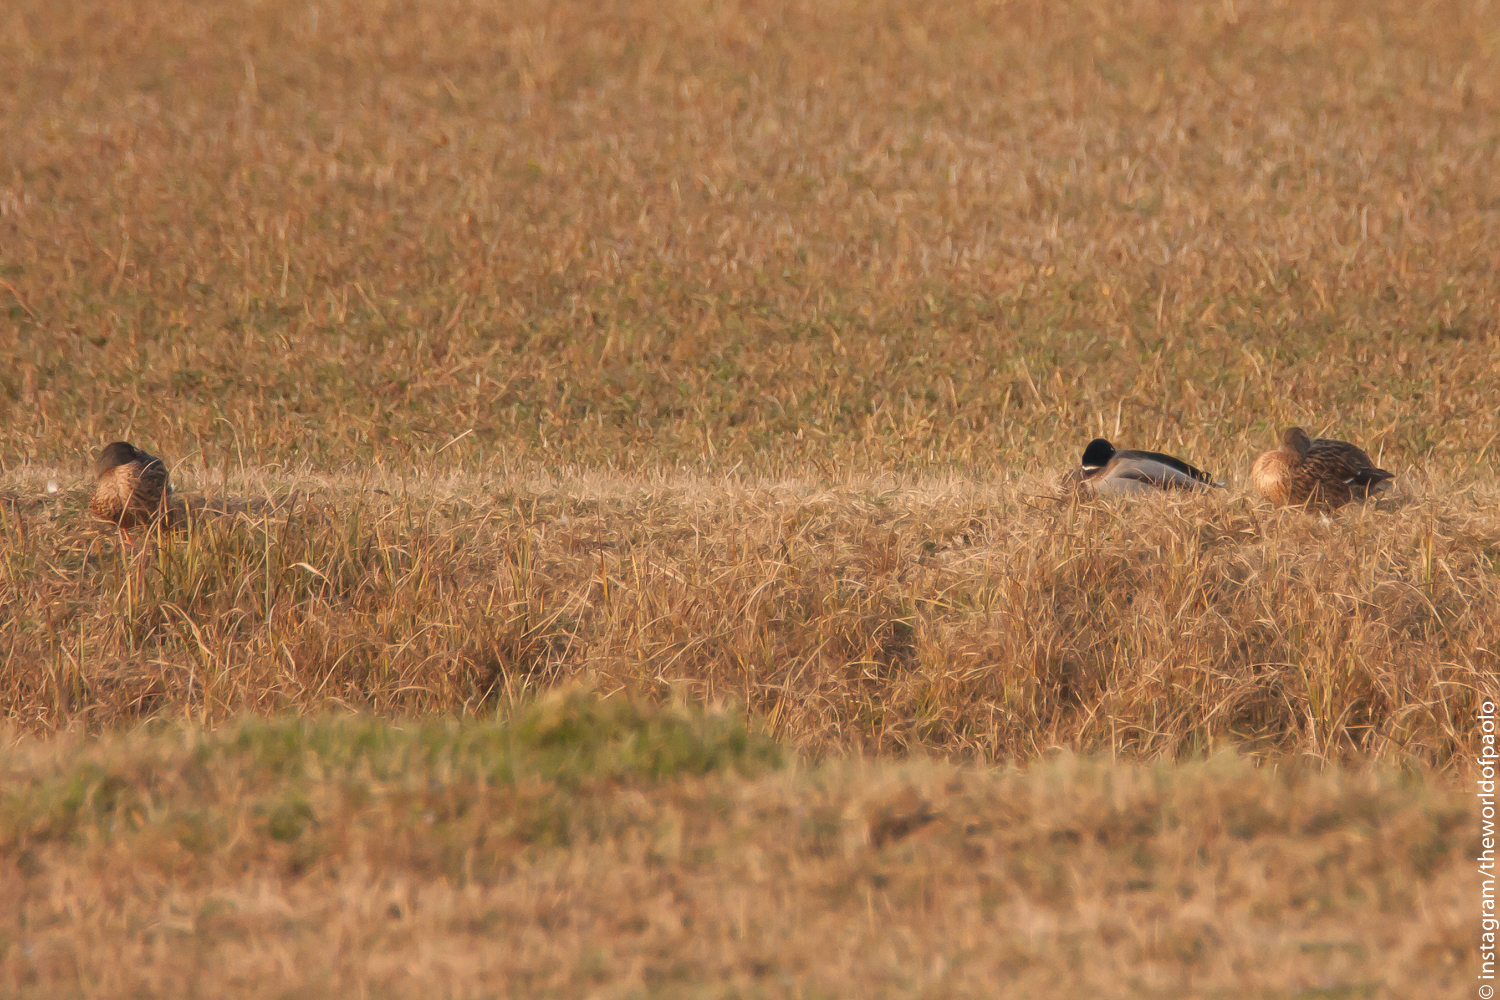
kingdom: Animalia
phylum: Chordata
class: Aves
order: Anseriformes
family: Anatidae
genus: Anas
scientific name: Anas platyrhynchos
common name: Mallard
